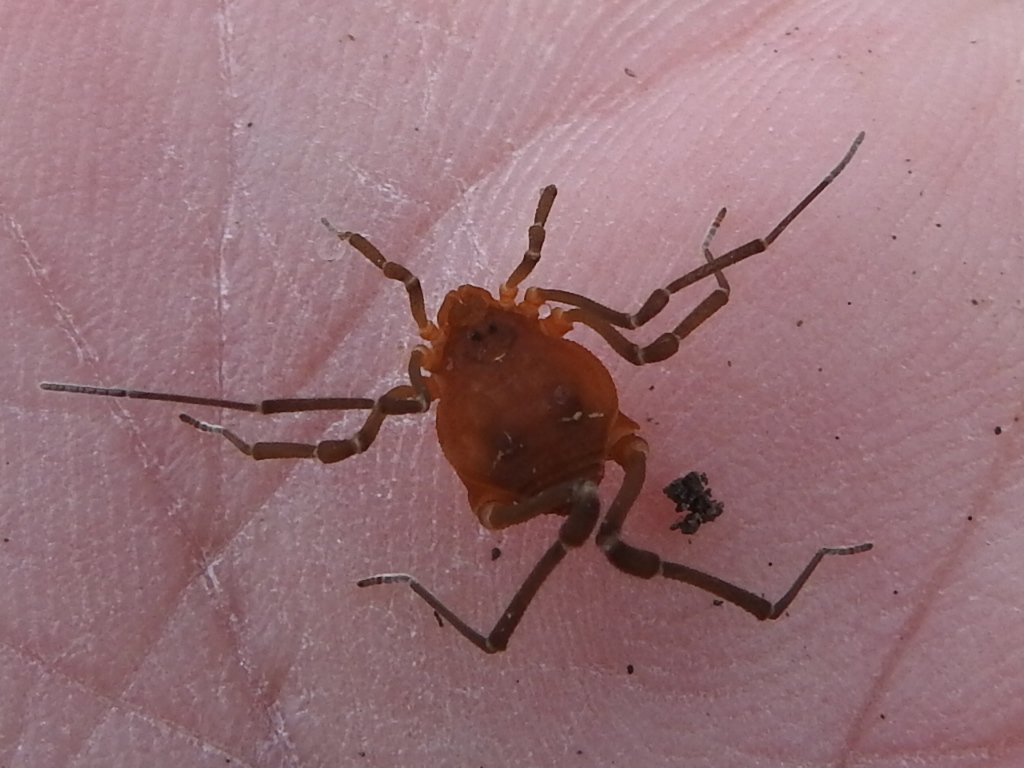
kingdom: Animalia
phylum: Arthropoda
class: Arachnida
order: Opiliones
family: Cosmetidae
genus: Libitioides
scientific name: Libitioides sayi
